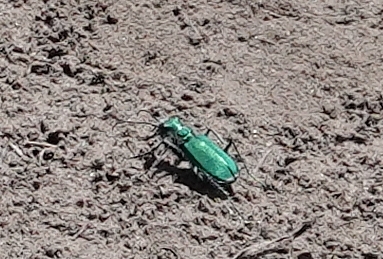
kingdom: Animalia
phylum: Arthropoda
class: Insecta
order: Coleoptera
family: Carabidae
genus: Cicindela
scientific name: Cicindela denverensis
